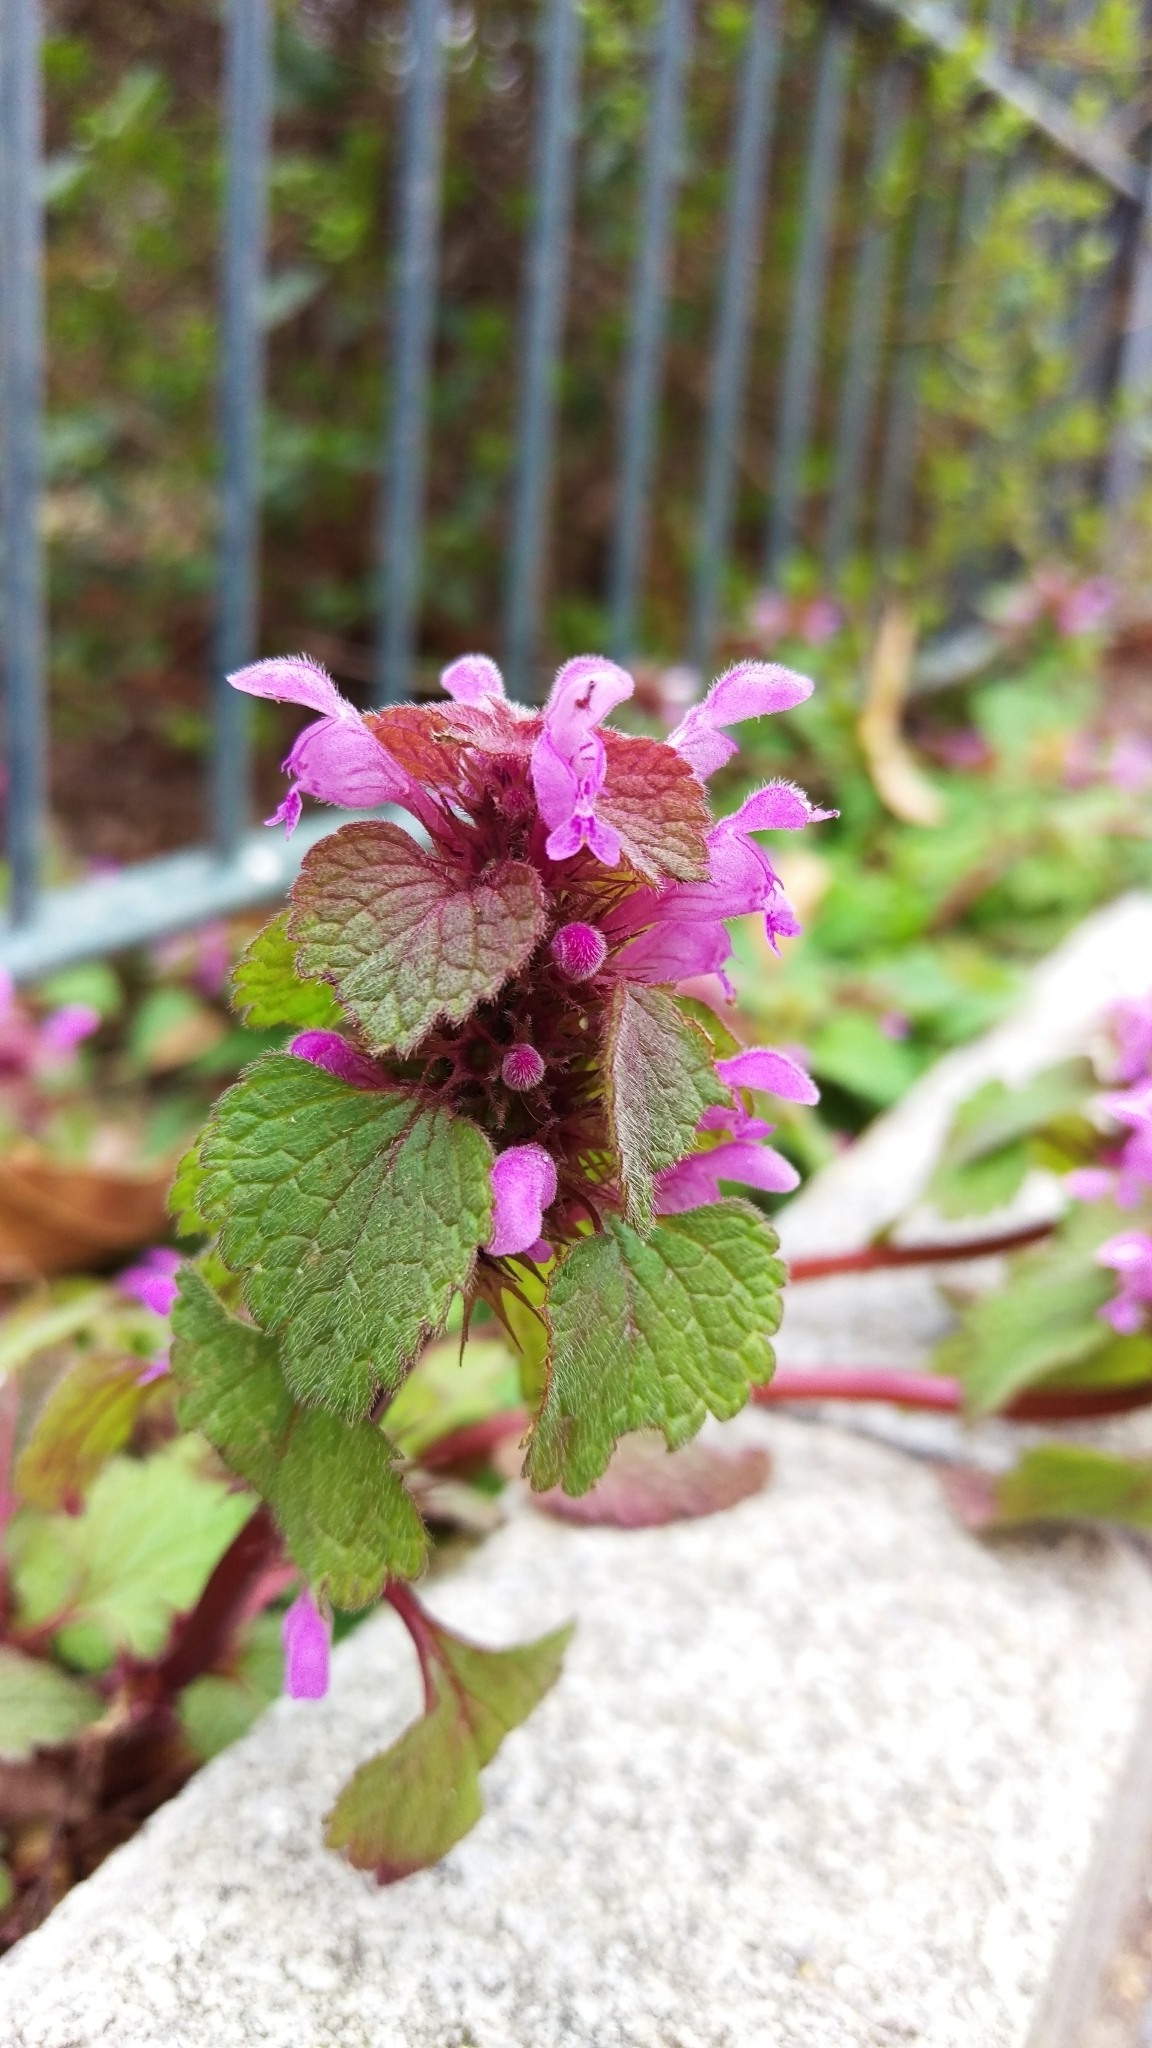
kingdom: Plantae
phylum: Tracheophyta
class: Magnoliopsida
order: Lamiales
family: Lamiaceae
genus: Lamium
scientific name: Lamium purpureum
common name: Red dead-nettle
